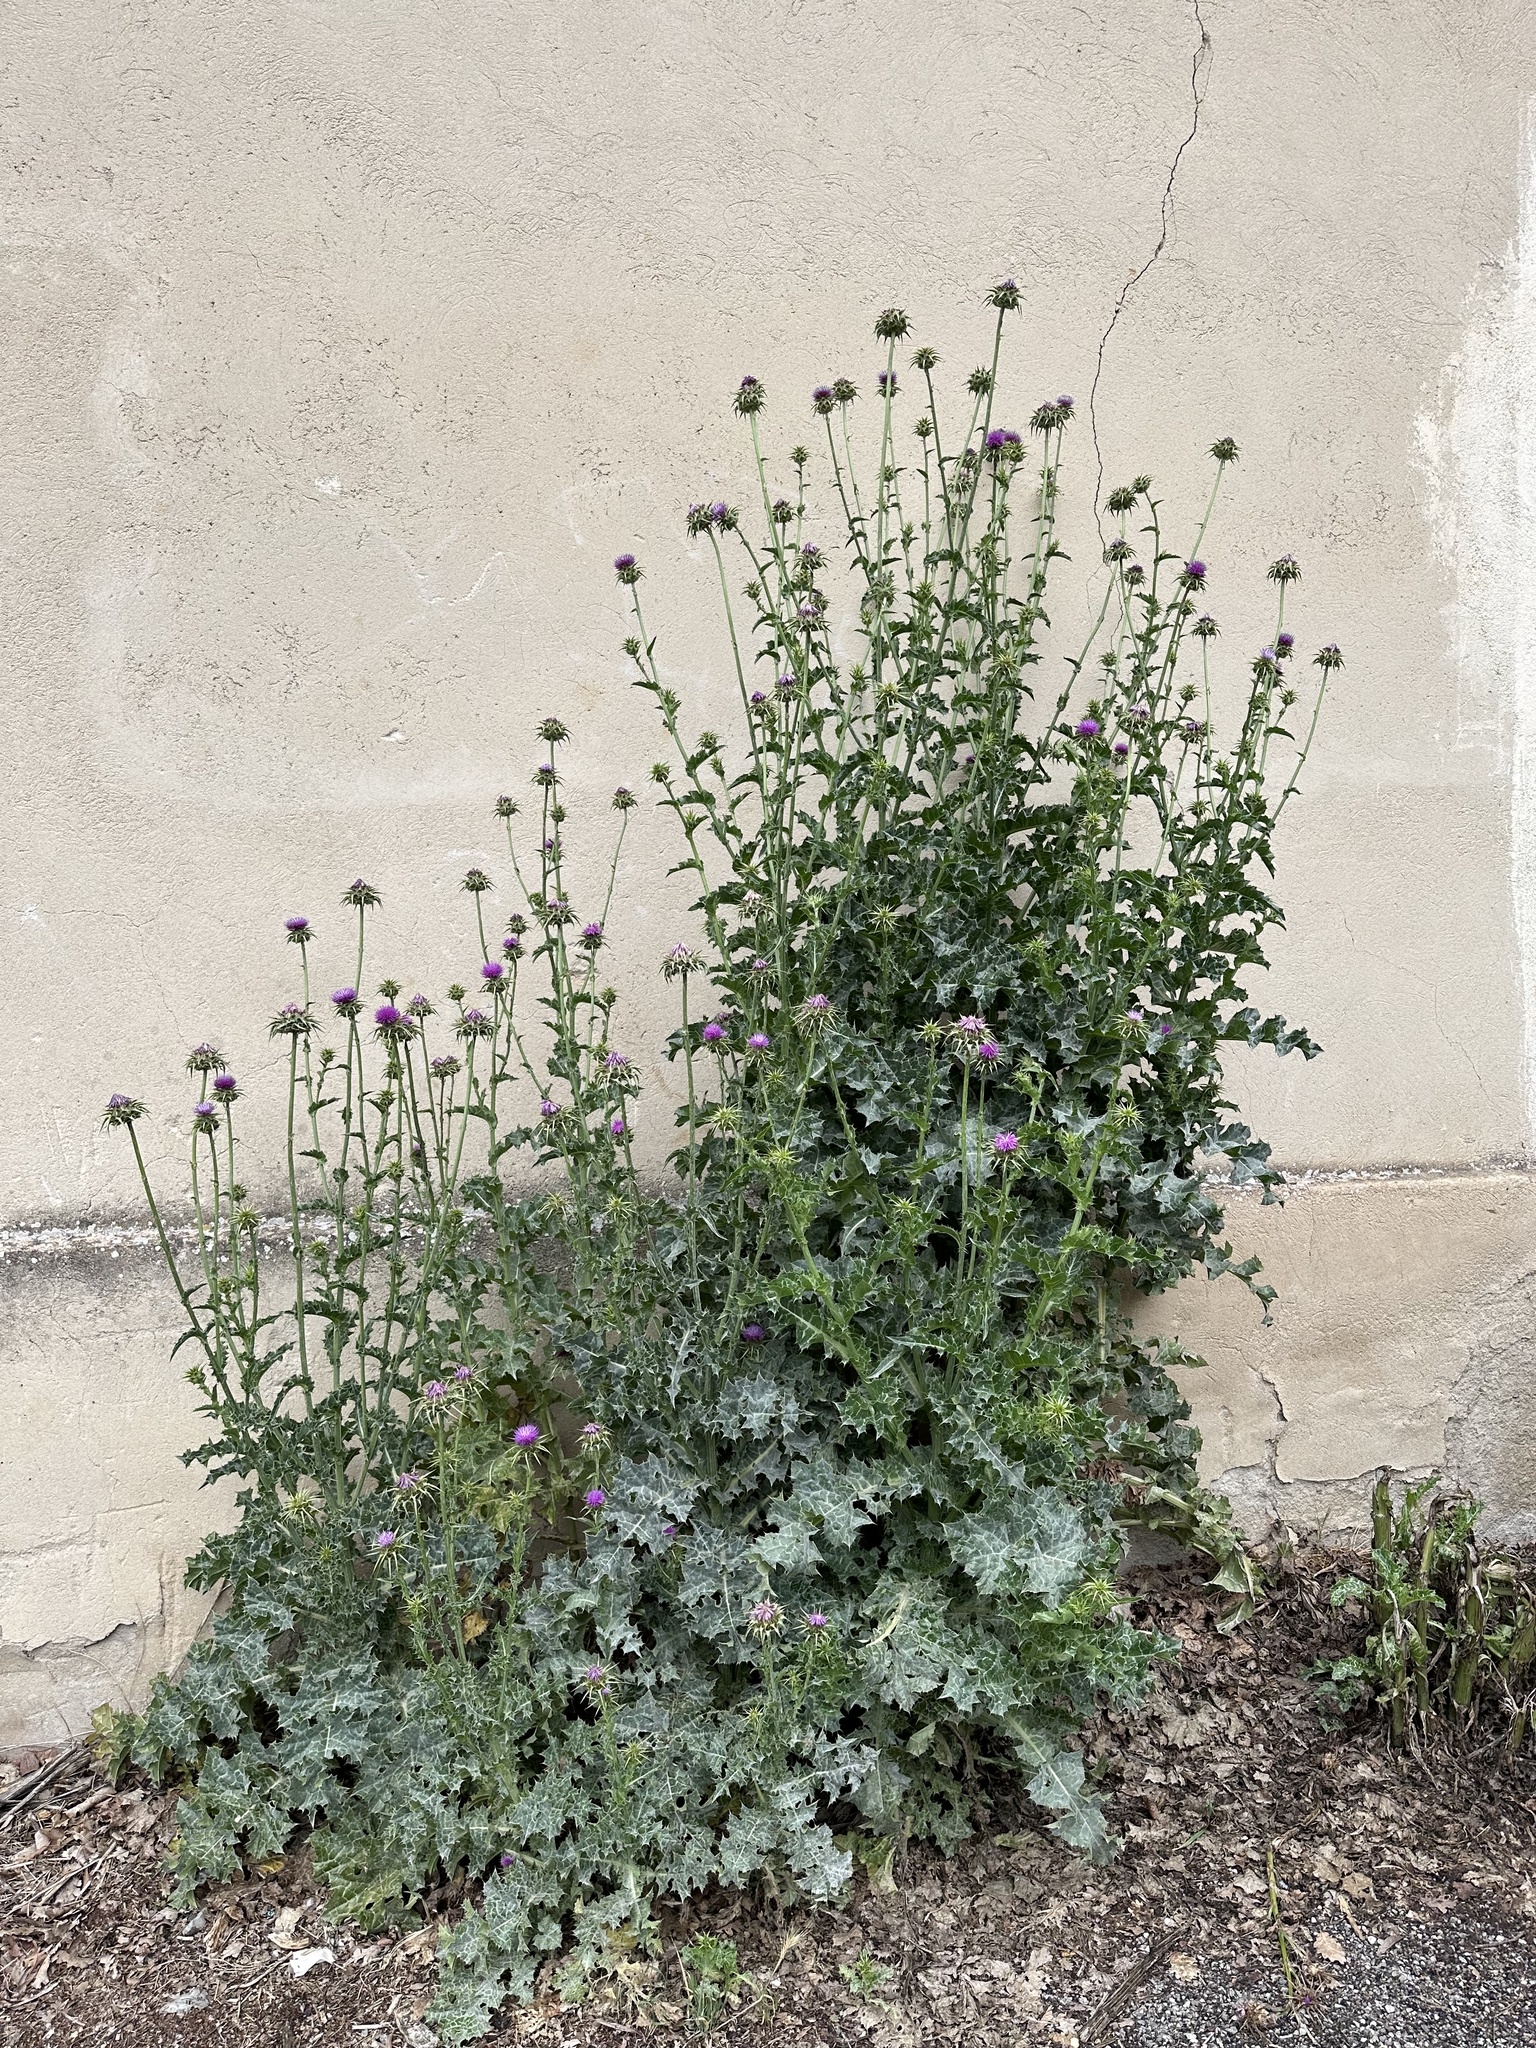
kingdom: Plantae
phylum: Tracheophyta
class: Magnoliopsida
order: Asterales
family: Asteraceae
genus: Silybum
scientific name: Silybum marianum
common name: Milk thistle
